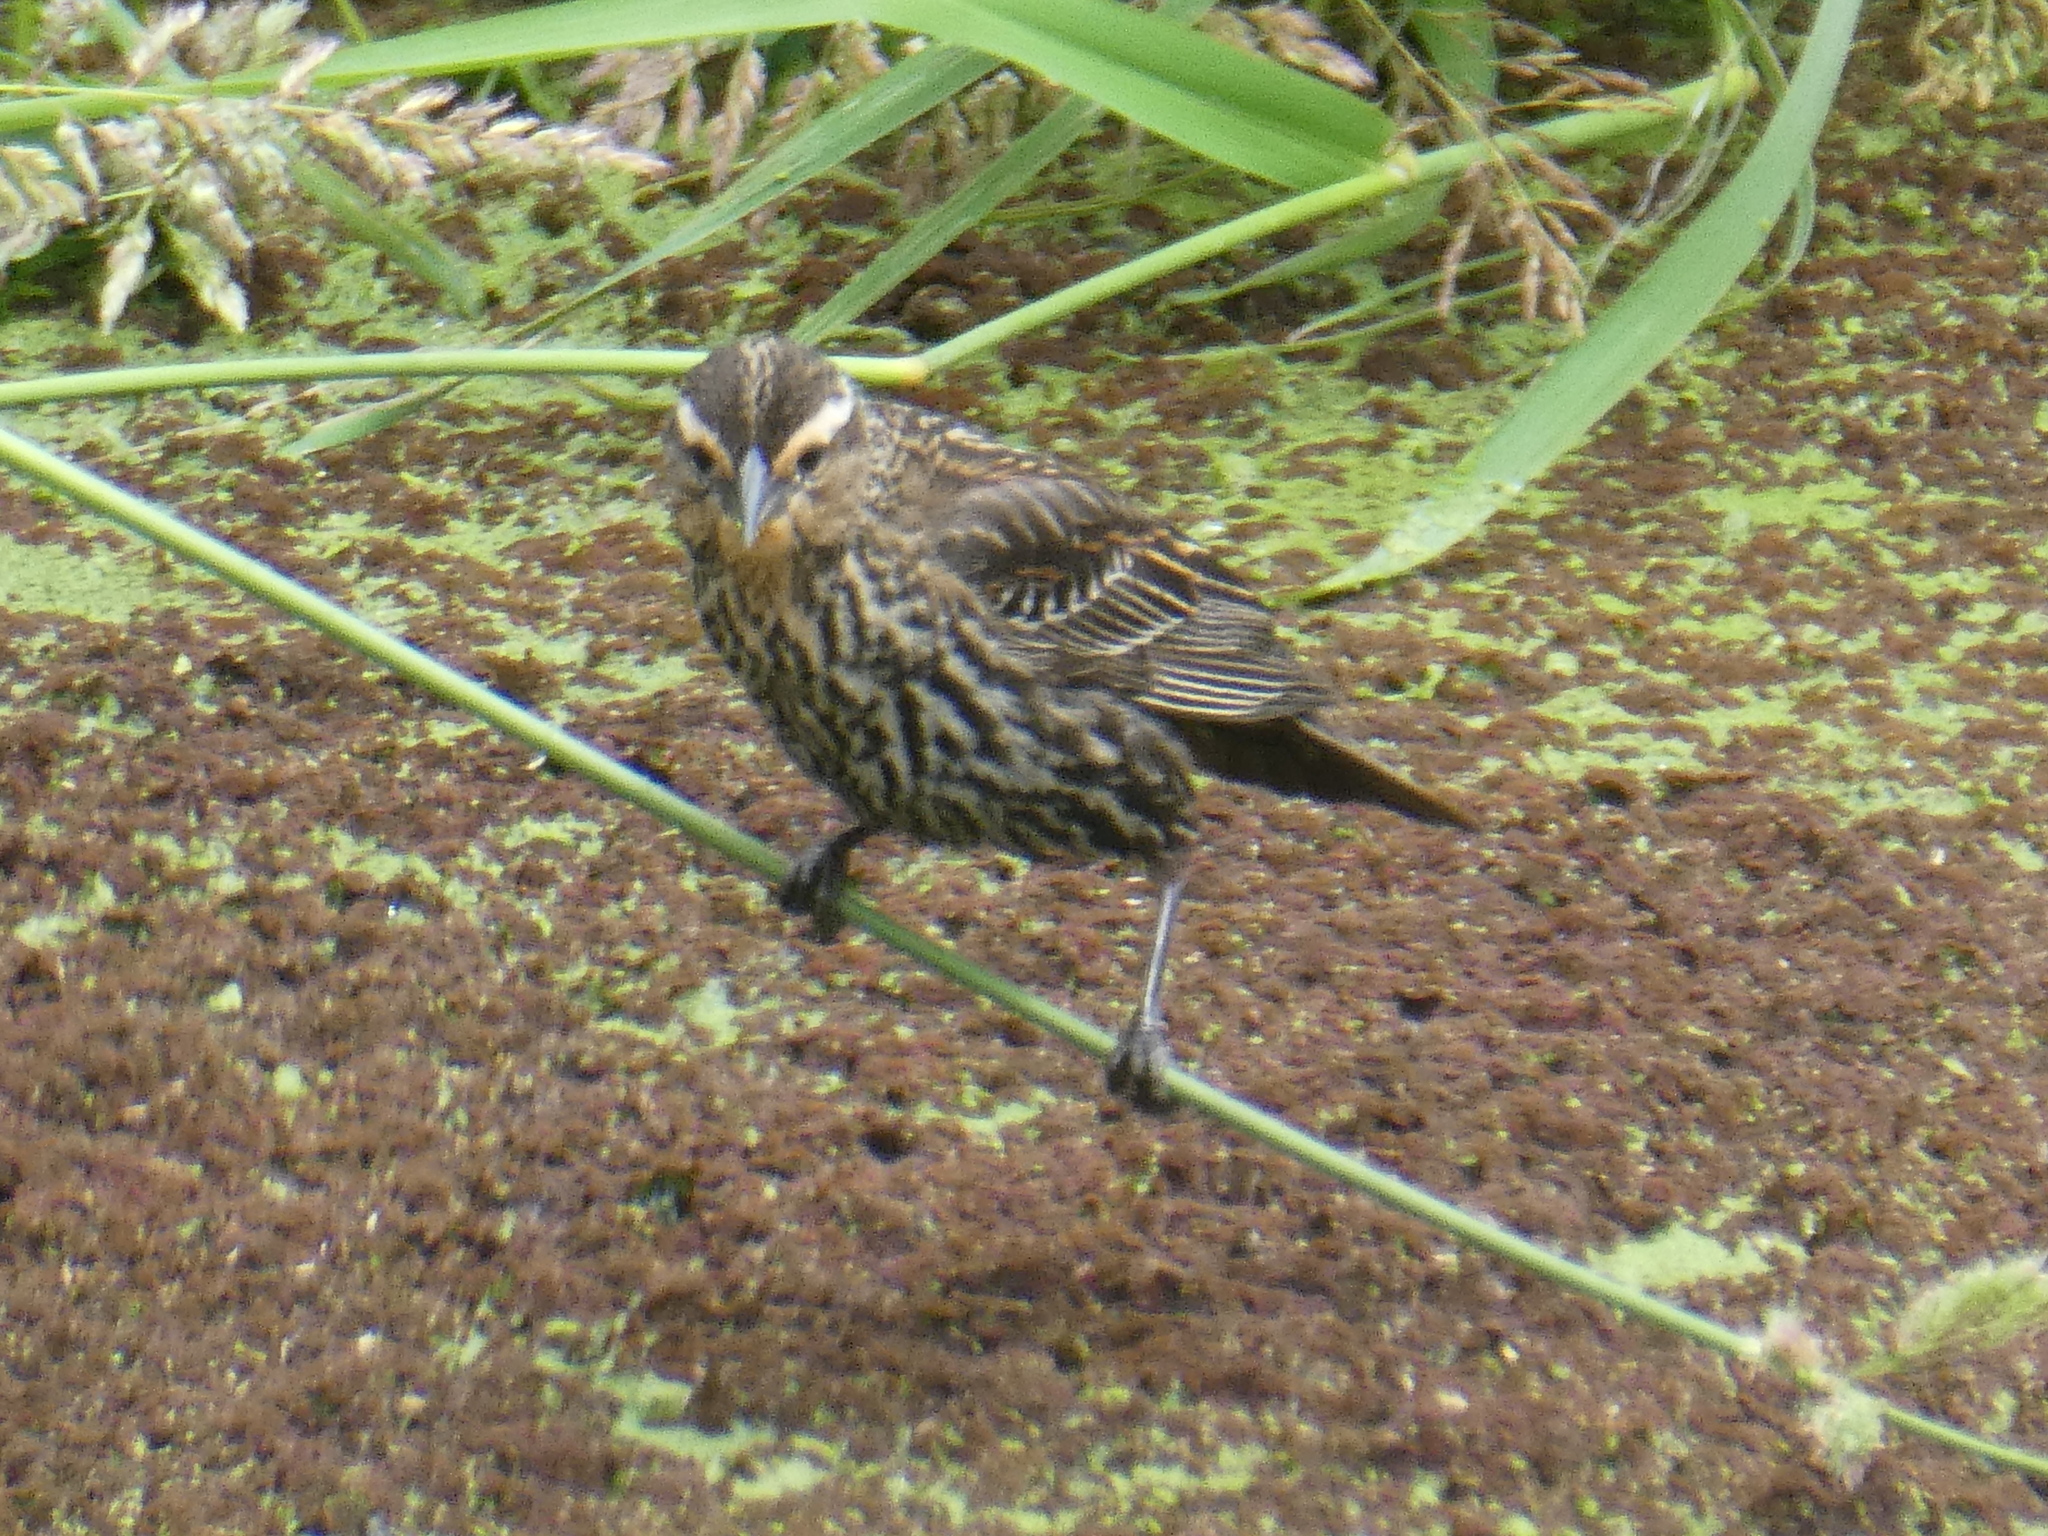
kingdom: Animalia
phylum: Chordata
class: Aves
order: Passeriformes
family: Icteridae
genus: Agelaius
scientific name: Agelaius phoeniceus
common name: Red-winged blackbird
